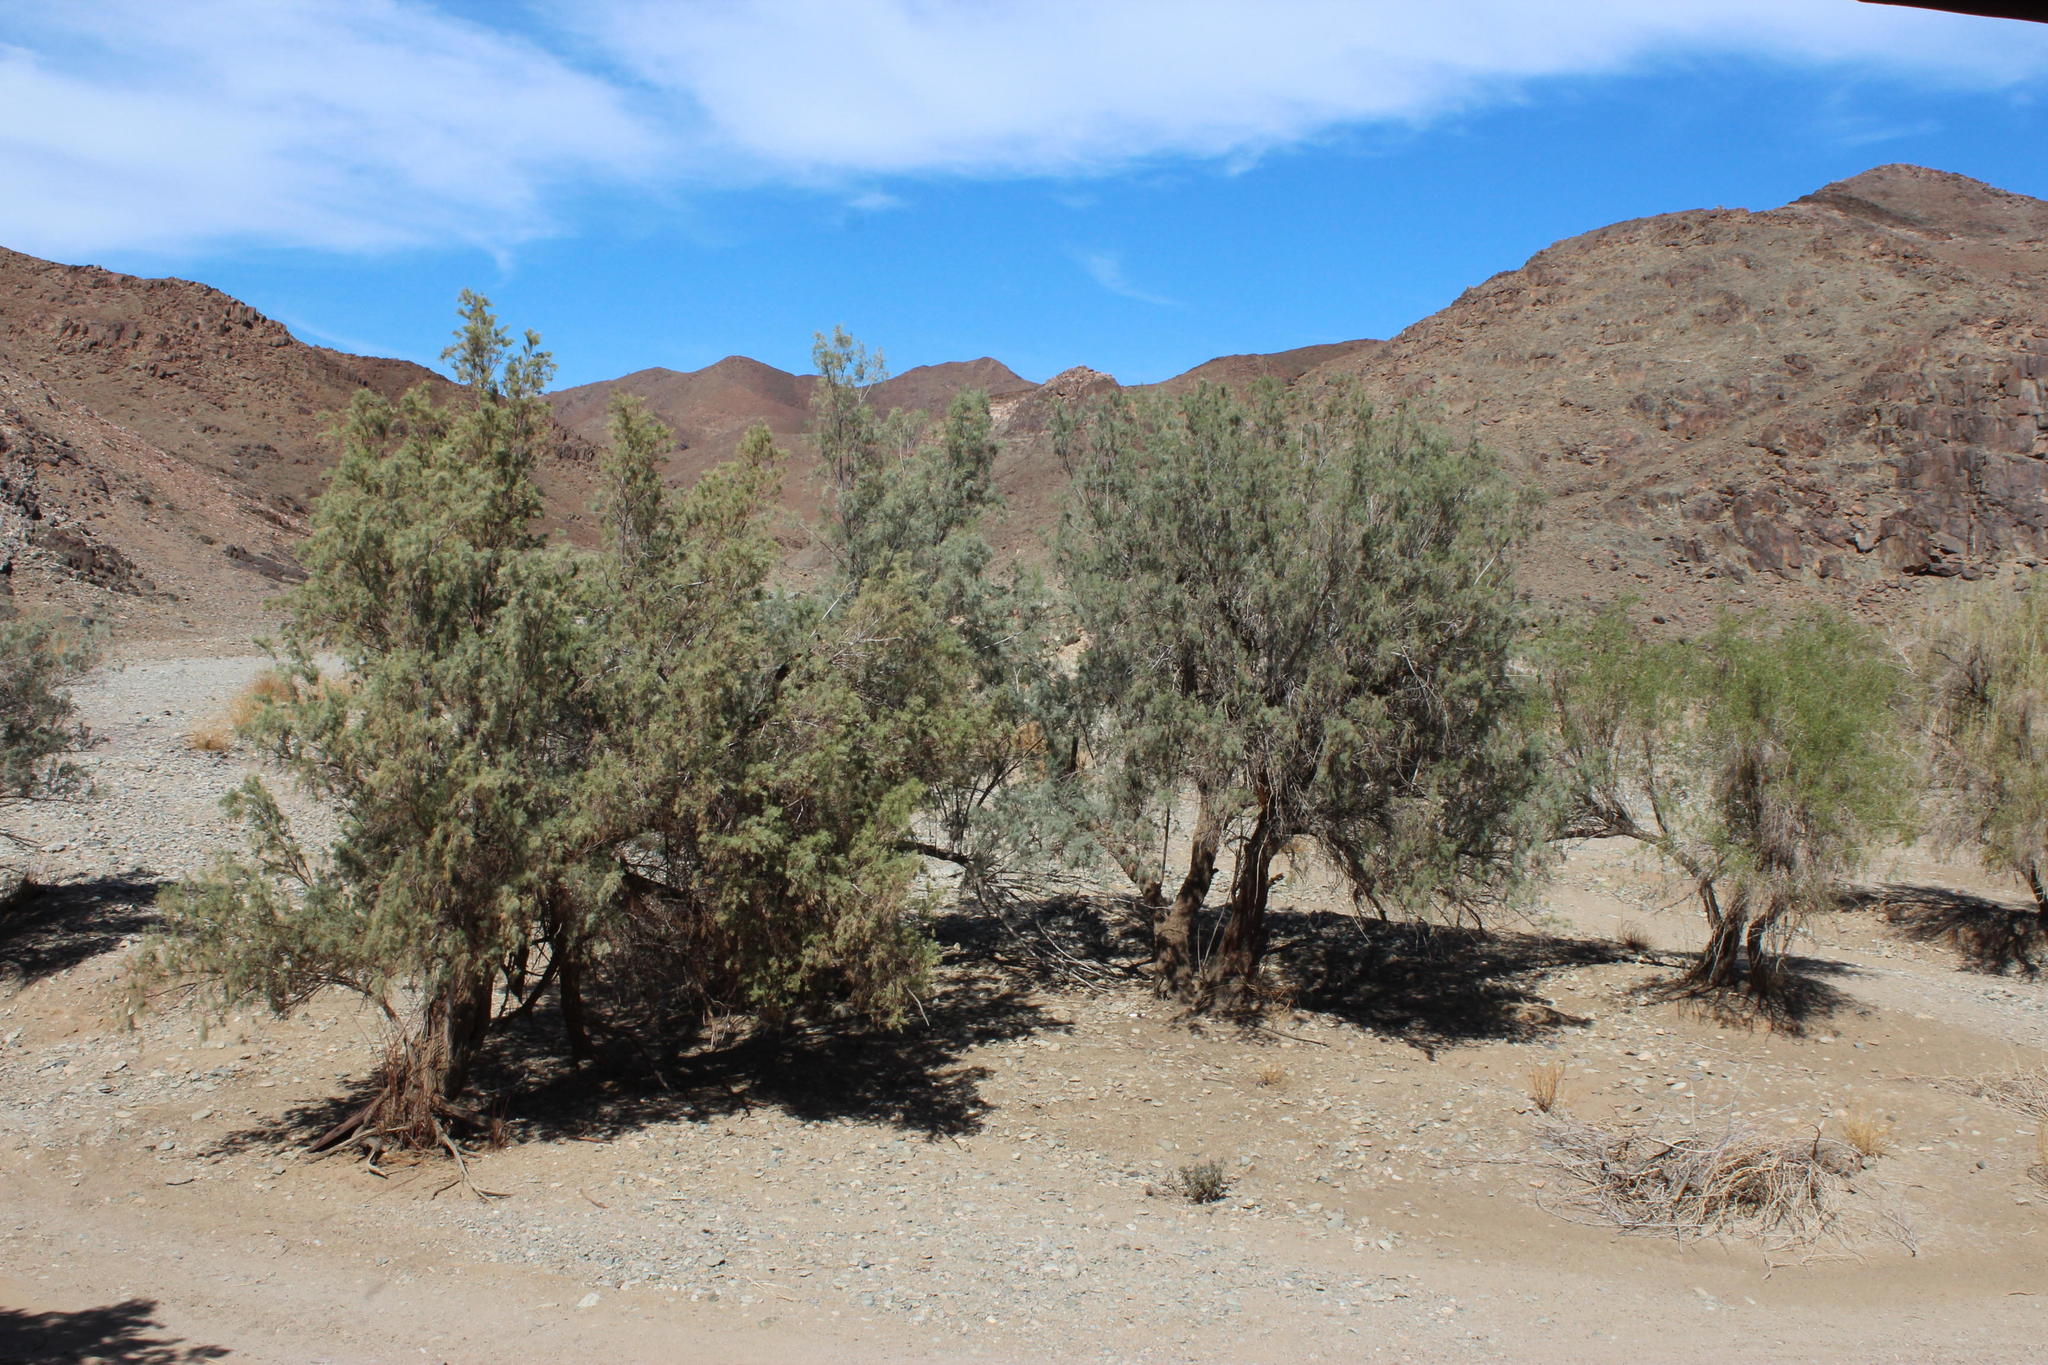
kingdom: Plantae
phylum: Tracheophyta
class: Magnoliopsida
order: Caryophyllales
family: Tamaricaceae
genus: Tamarix
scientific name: Tamarix usneoides
